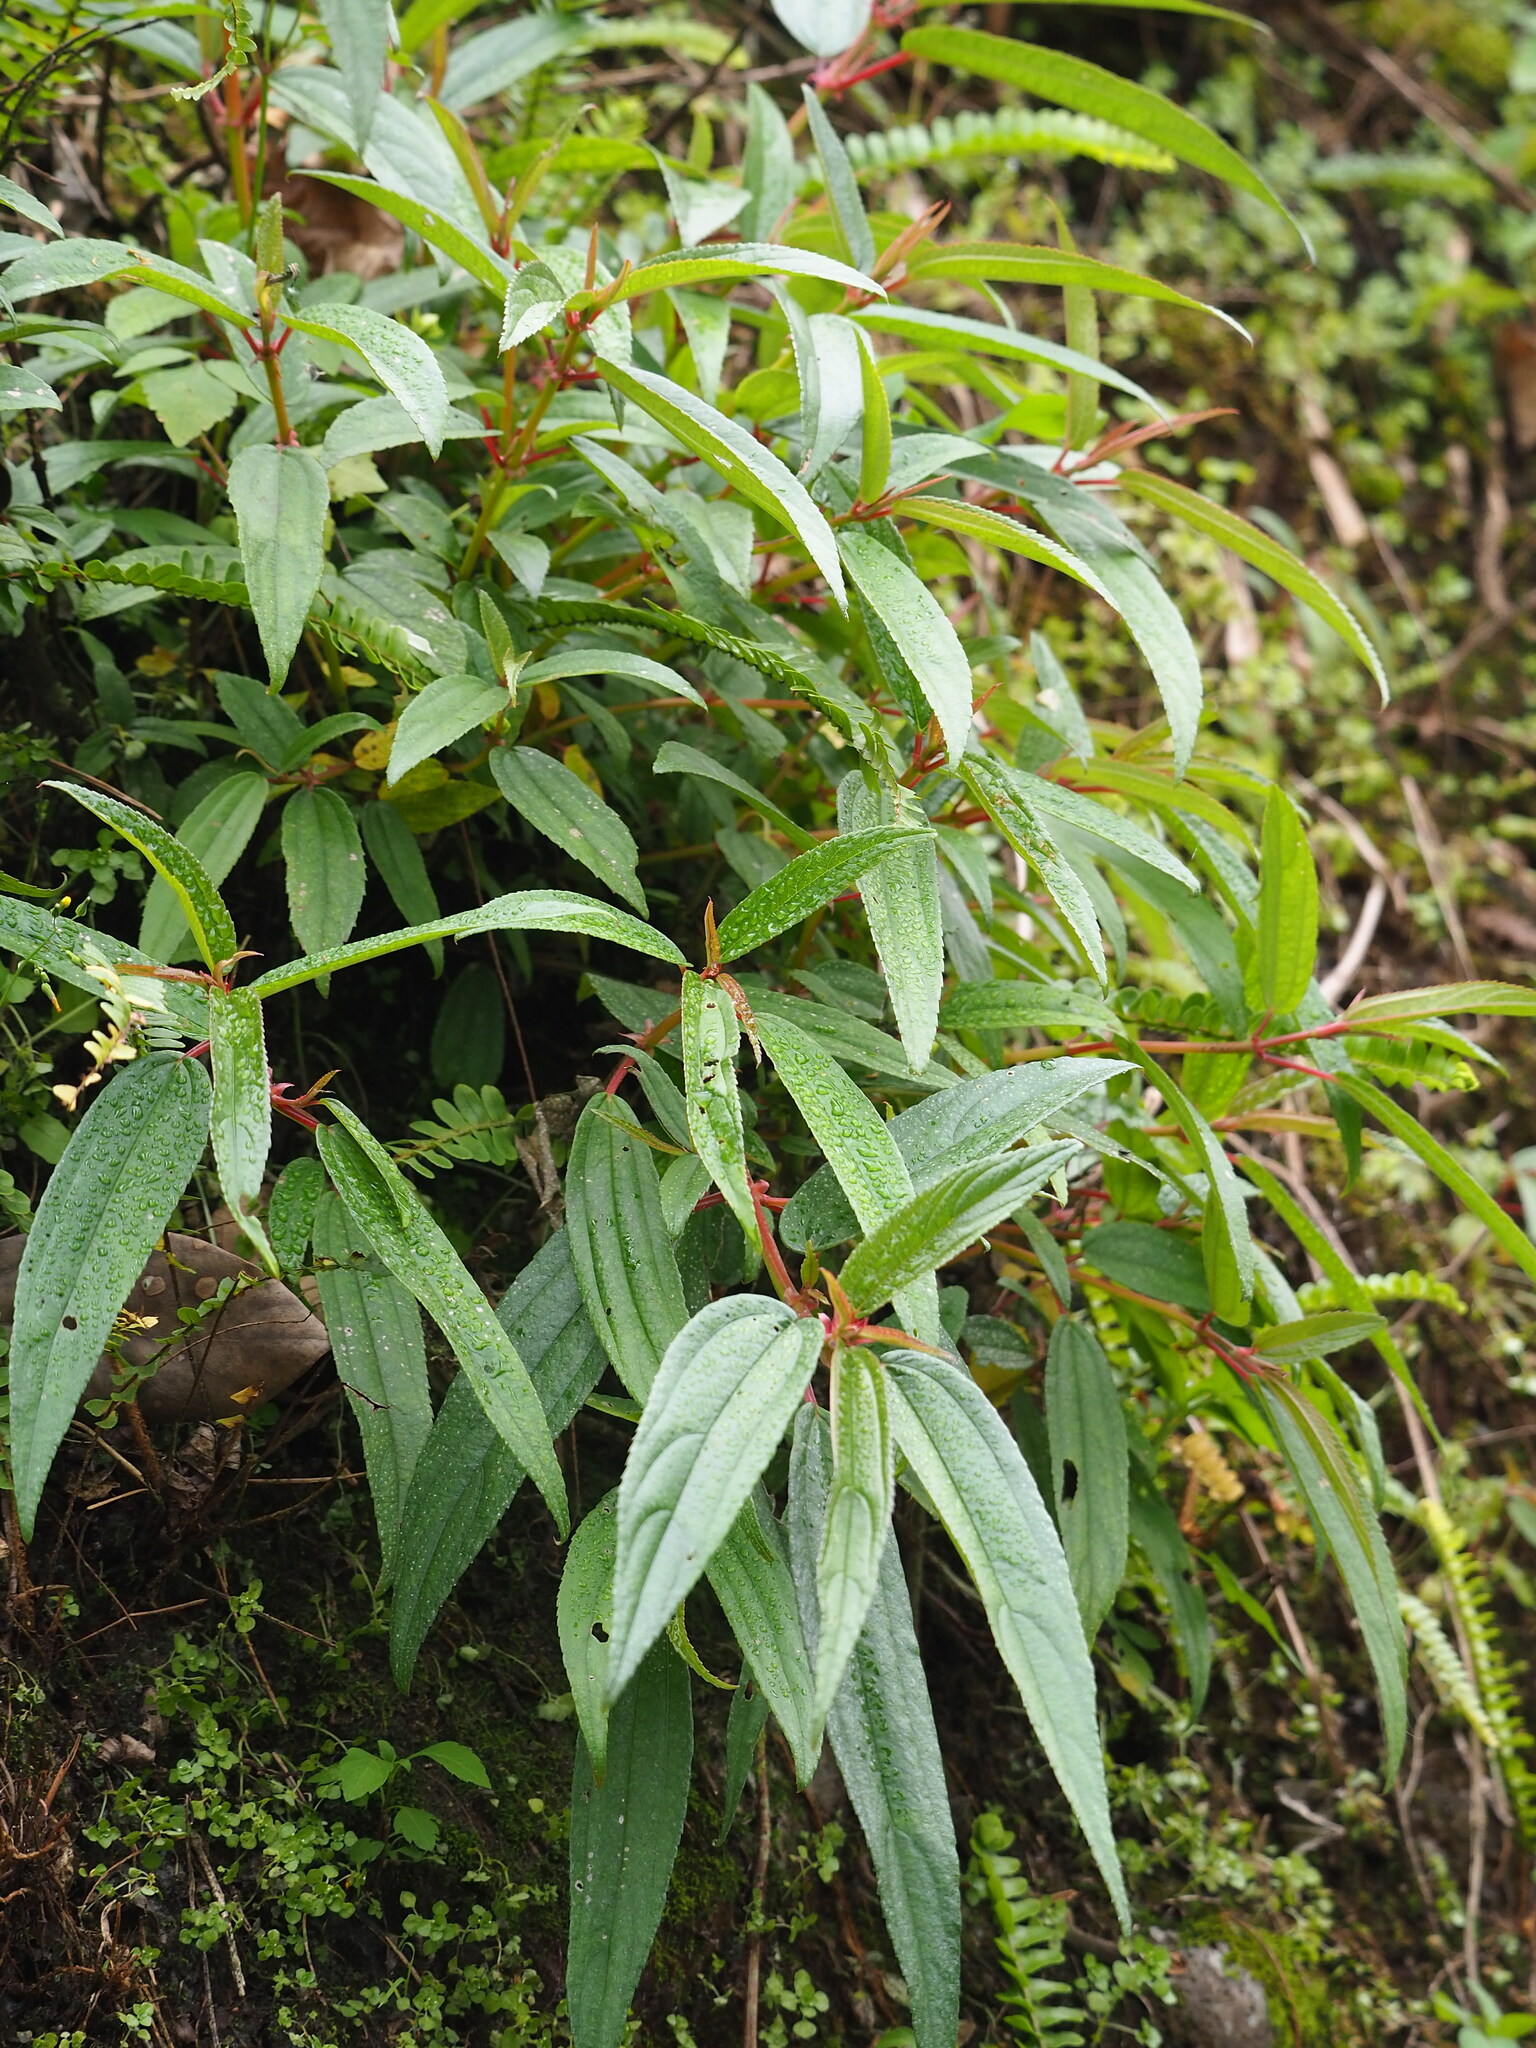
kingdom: Plantae
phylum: Tracheophyta
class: Magnoliopsida
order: Rosales
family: Urticaceae
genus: Boehmeria
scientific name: Boehmeria densiflora
